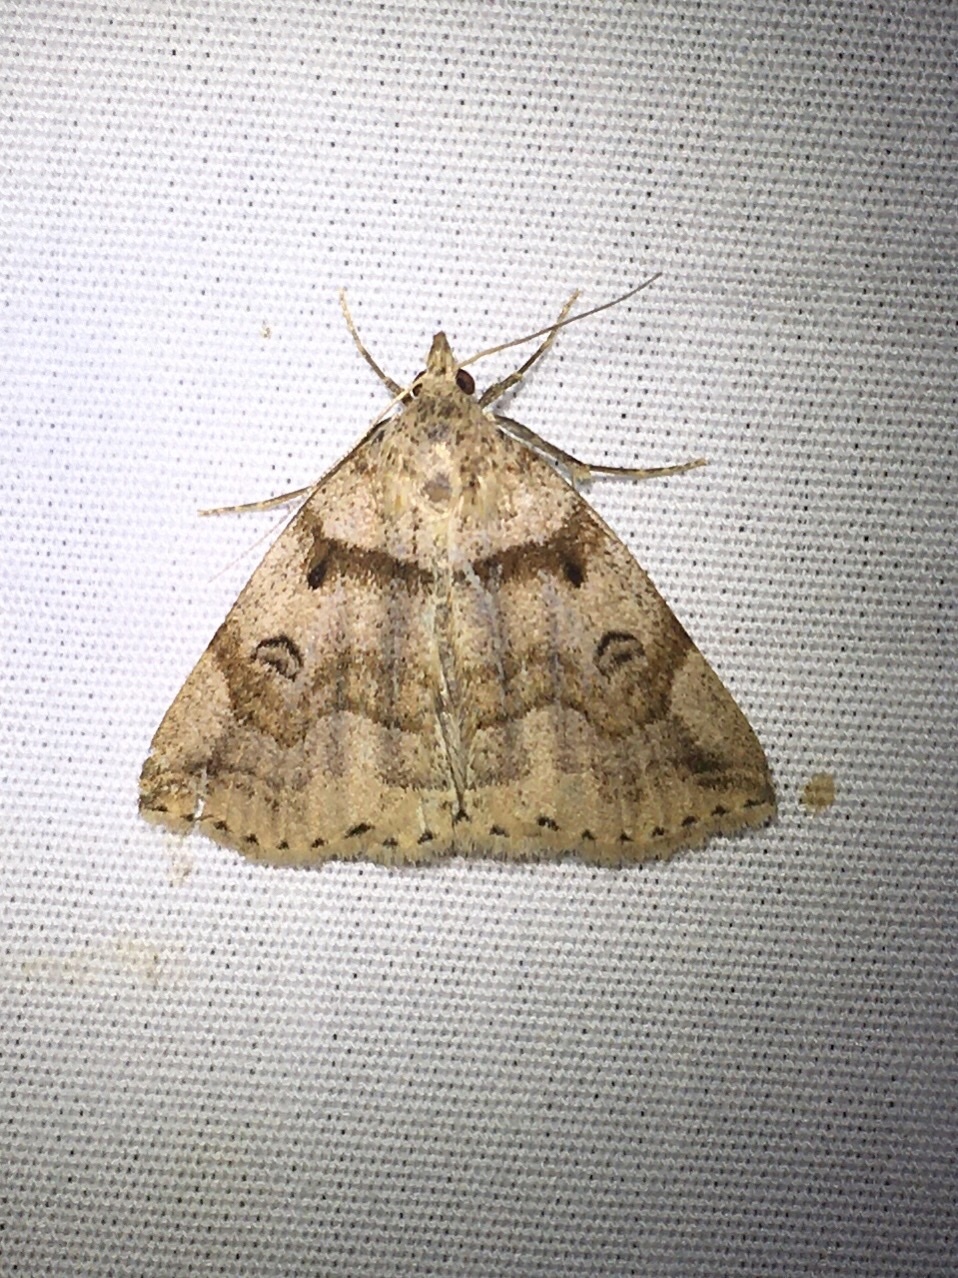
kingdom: Animalia
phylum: Arthropoda
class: Insecta
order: Lepidoptera
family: Erebidae
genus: Zanclognatha
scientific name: Zanclognatha laevigata
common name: Variable fan-foot
